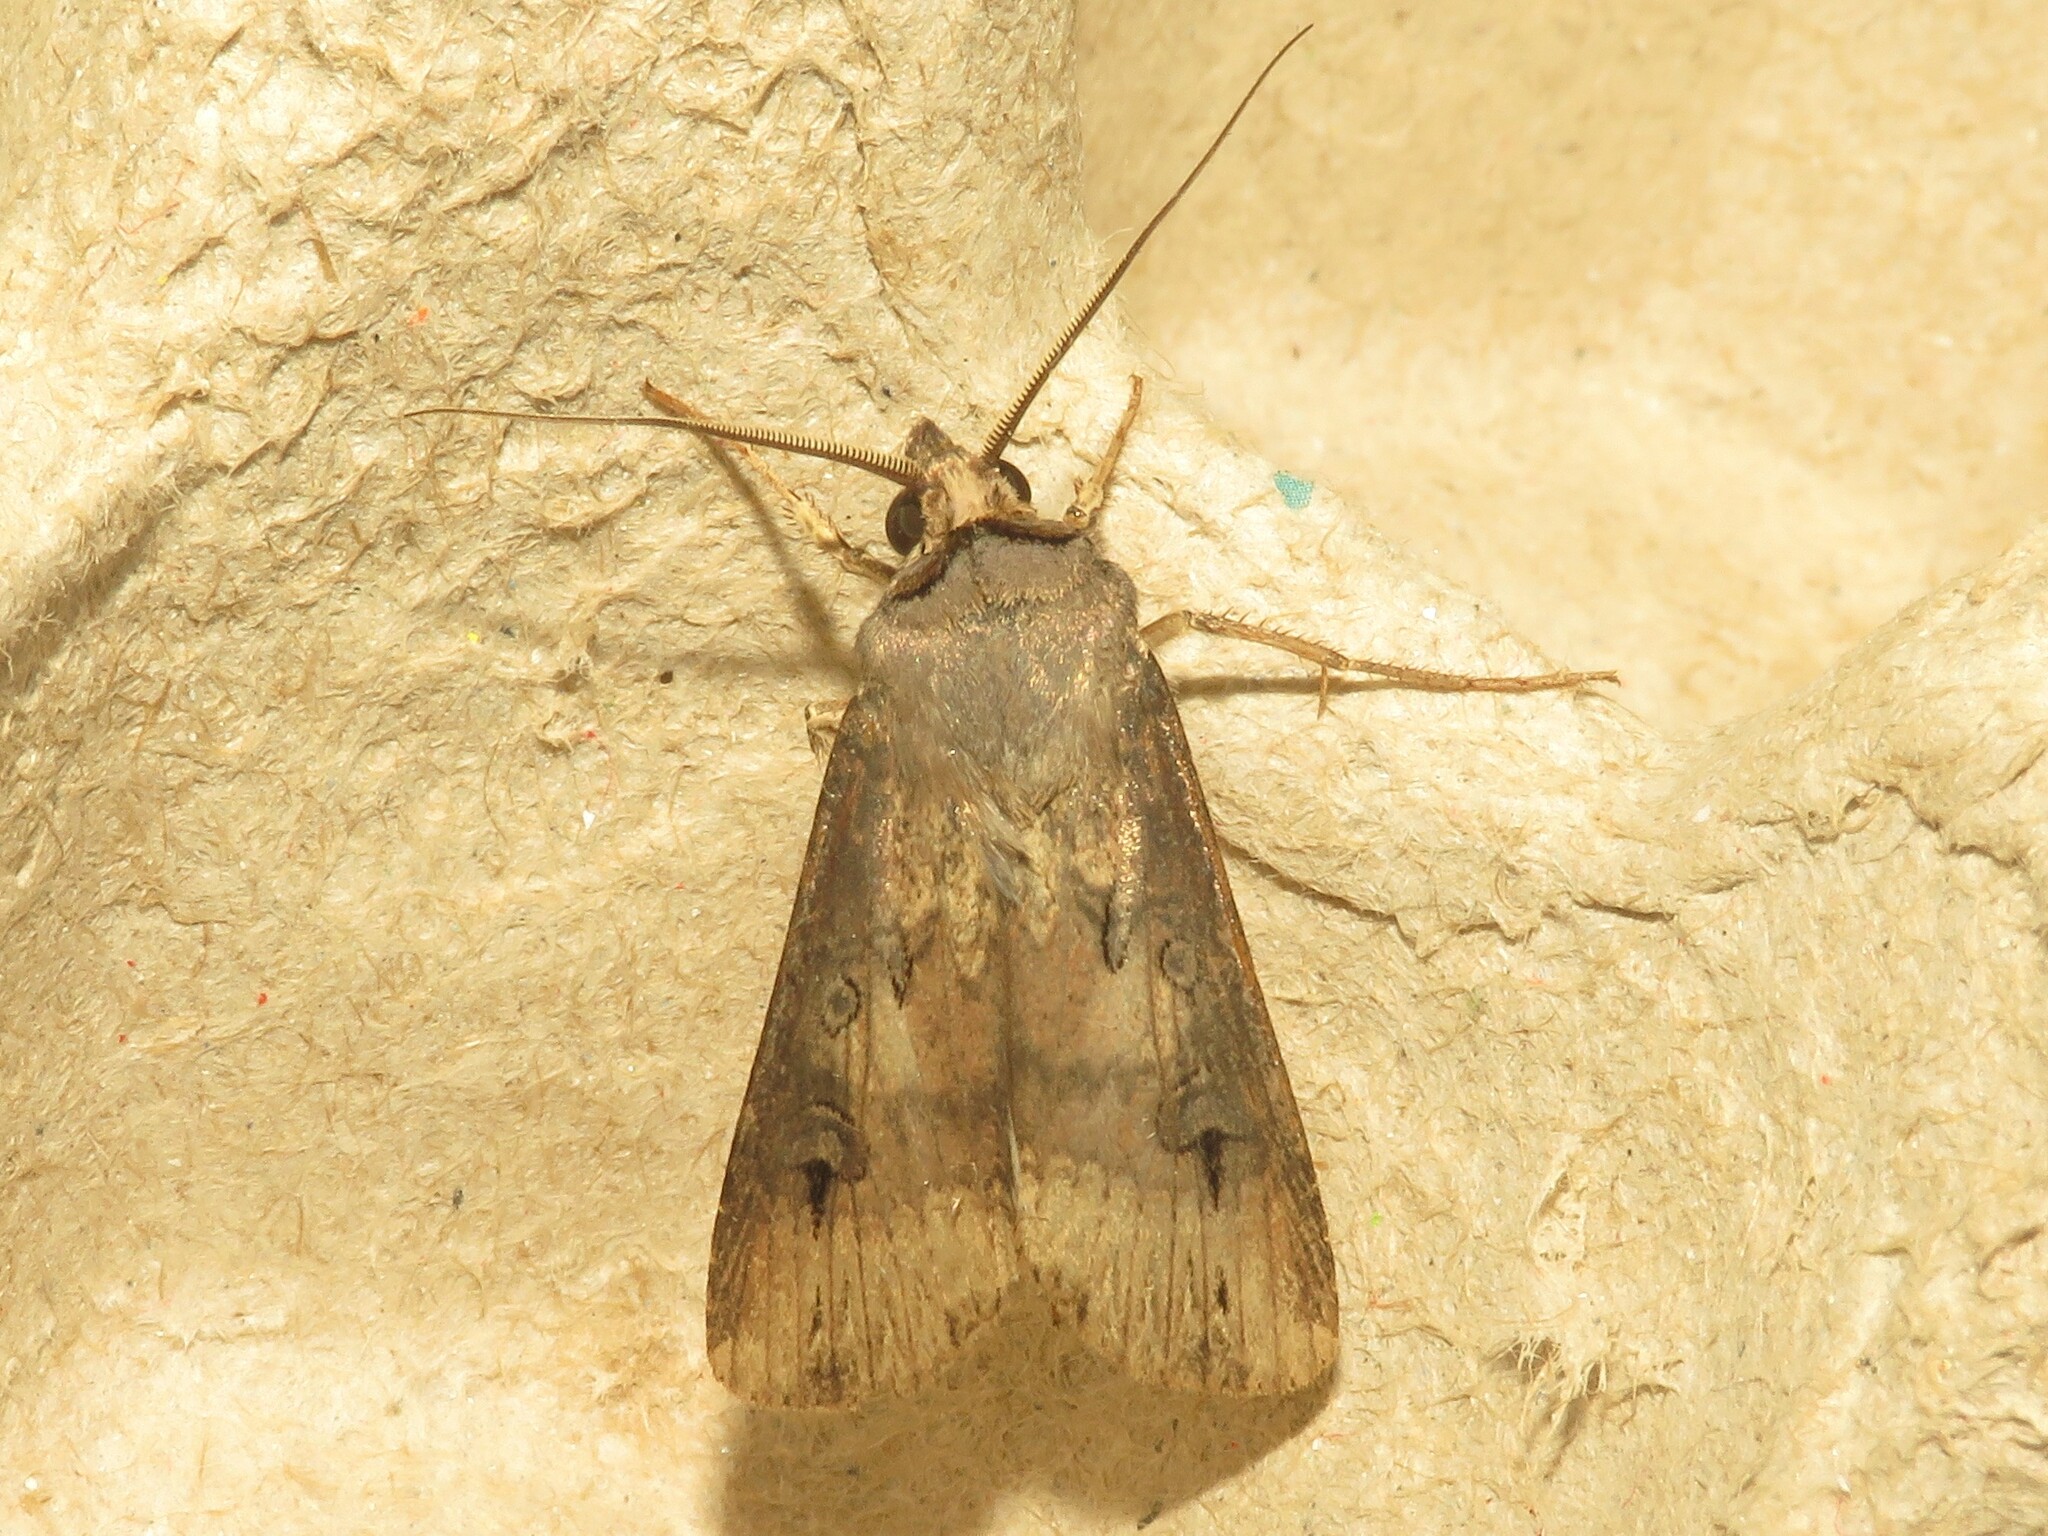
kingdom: Animalia
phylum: Arthropoda
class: Insecta
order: Lepidoptera
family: Noctuidae
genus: Agrotis
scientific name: Agrotis ipsilon
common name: Dark sword-grass
